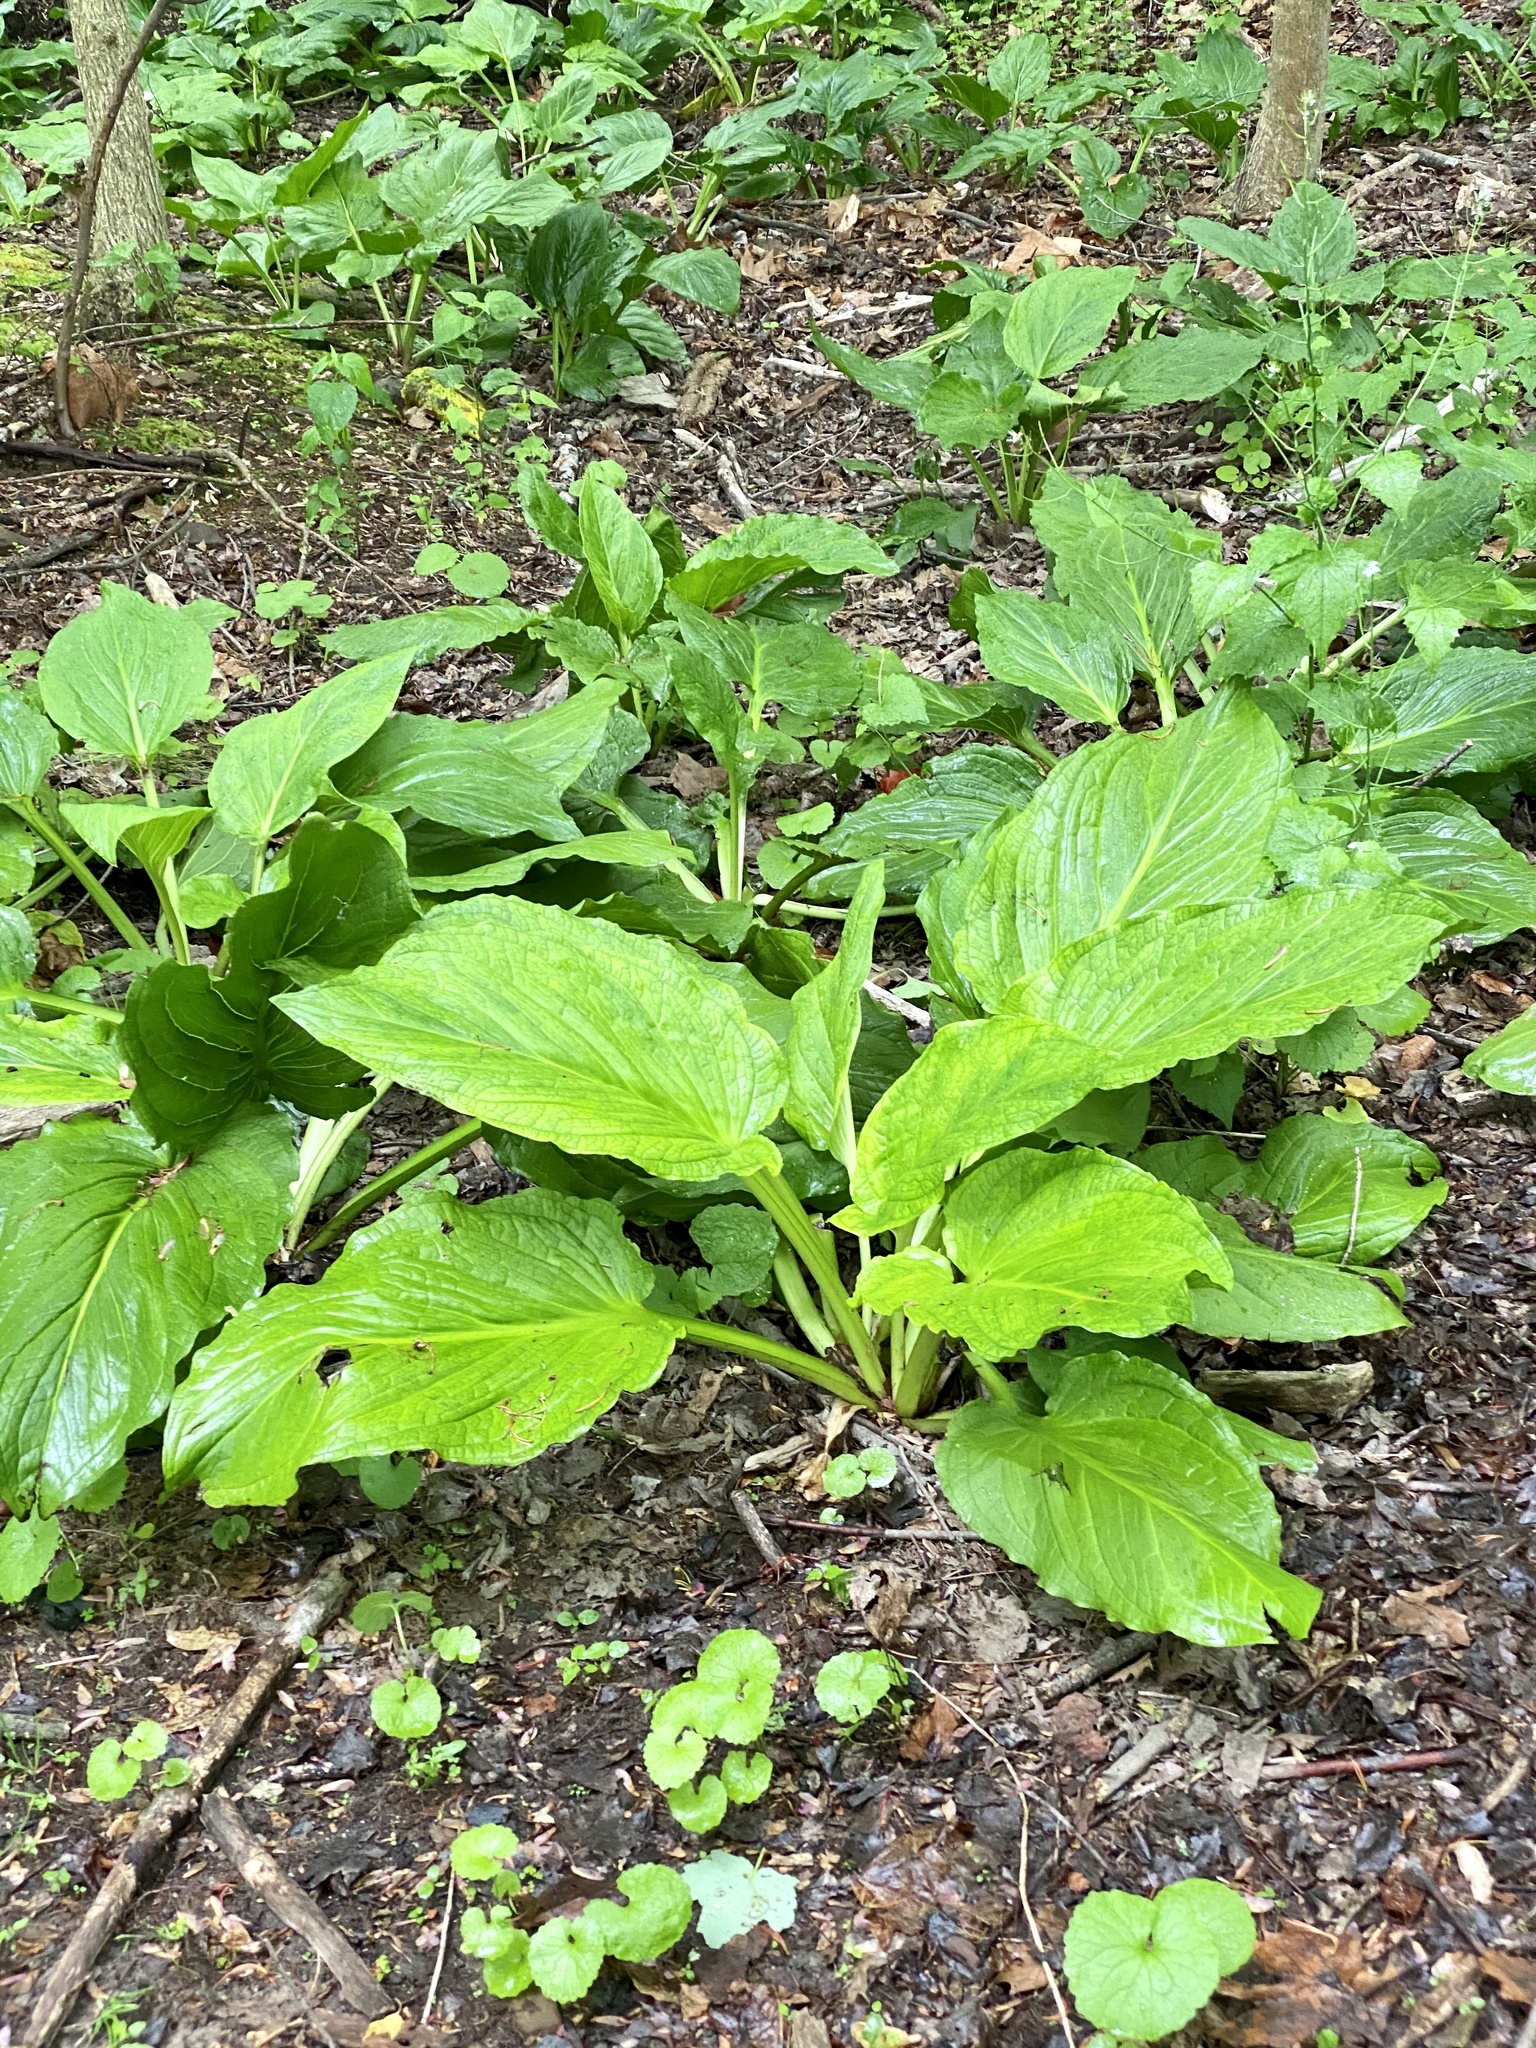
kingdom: Plantae
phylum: Tracheophyta
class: Liliopsida
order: Alismatales
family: Araceae
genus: Symplocarpus
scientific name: Symplocarpus foetidus
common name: Eastern skunk cabbage
